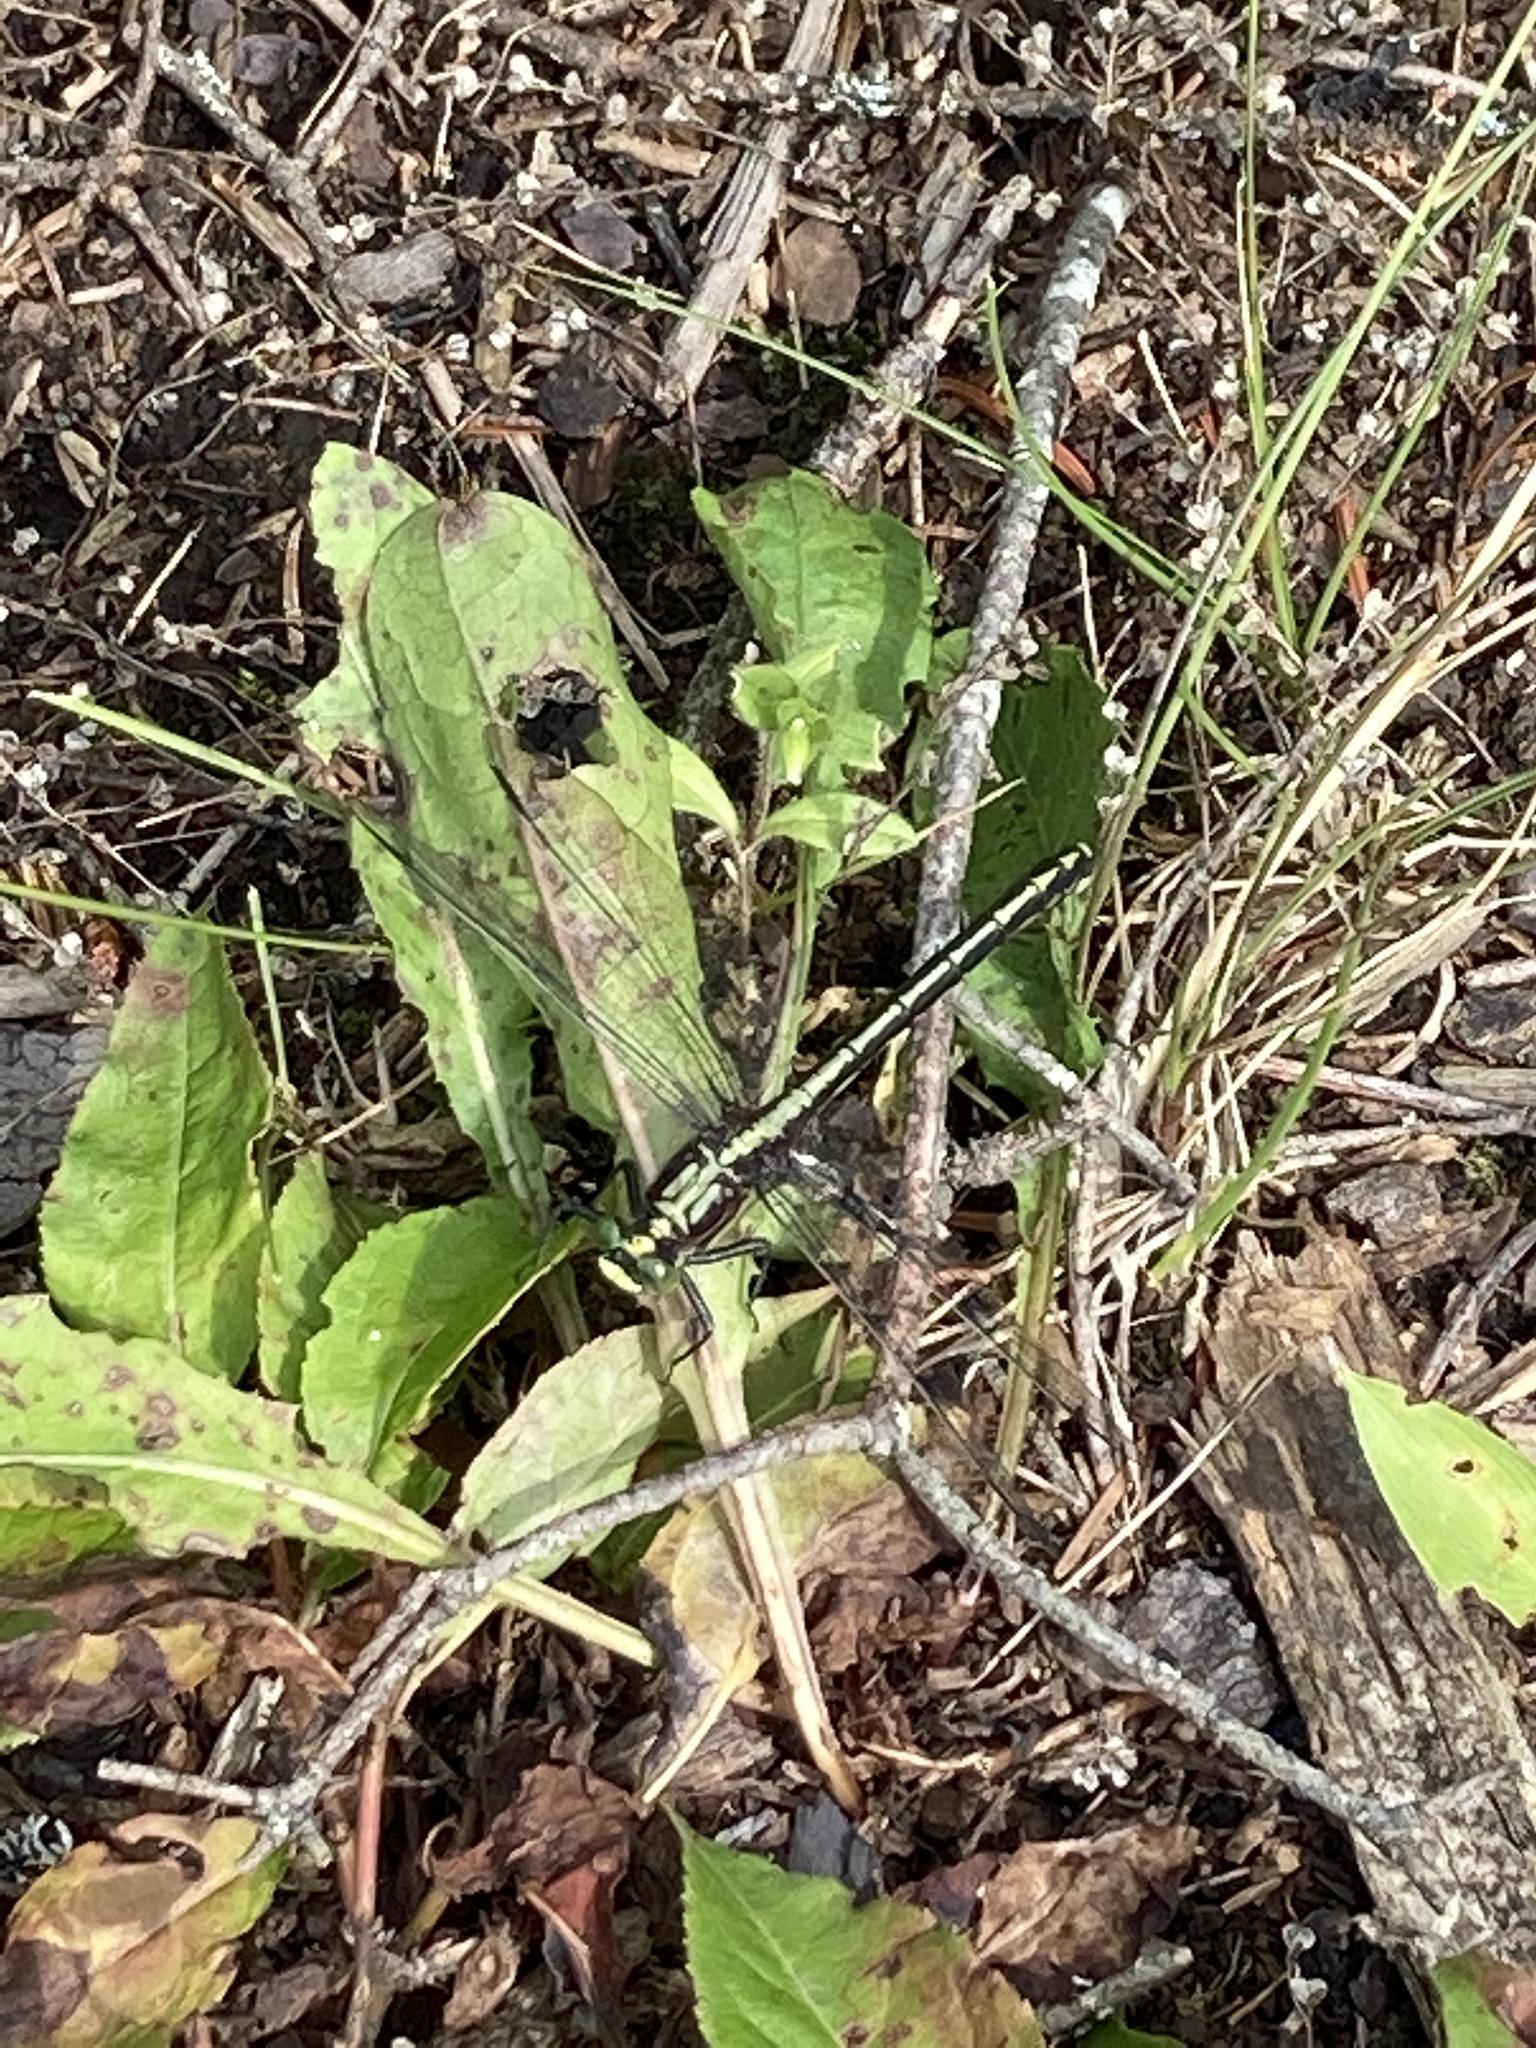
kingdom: Animalia
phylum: Arthropoda
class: Insecta
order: Odonata
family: Gomphidae
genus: Dromogomphus
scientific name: Dromogomphus spinosus
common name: Black-shouldered spinyleg
